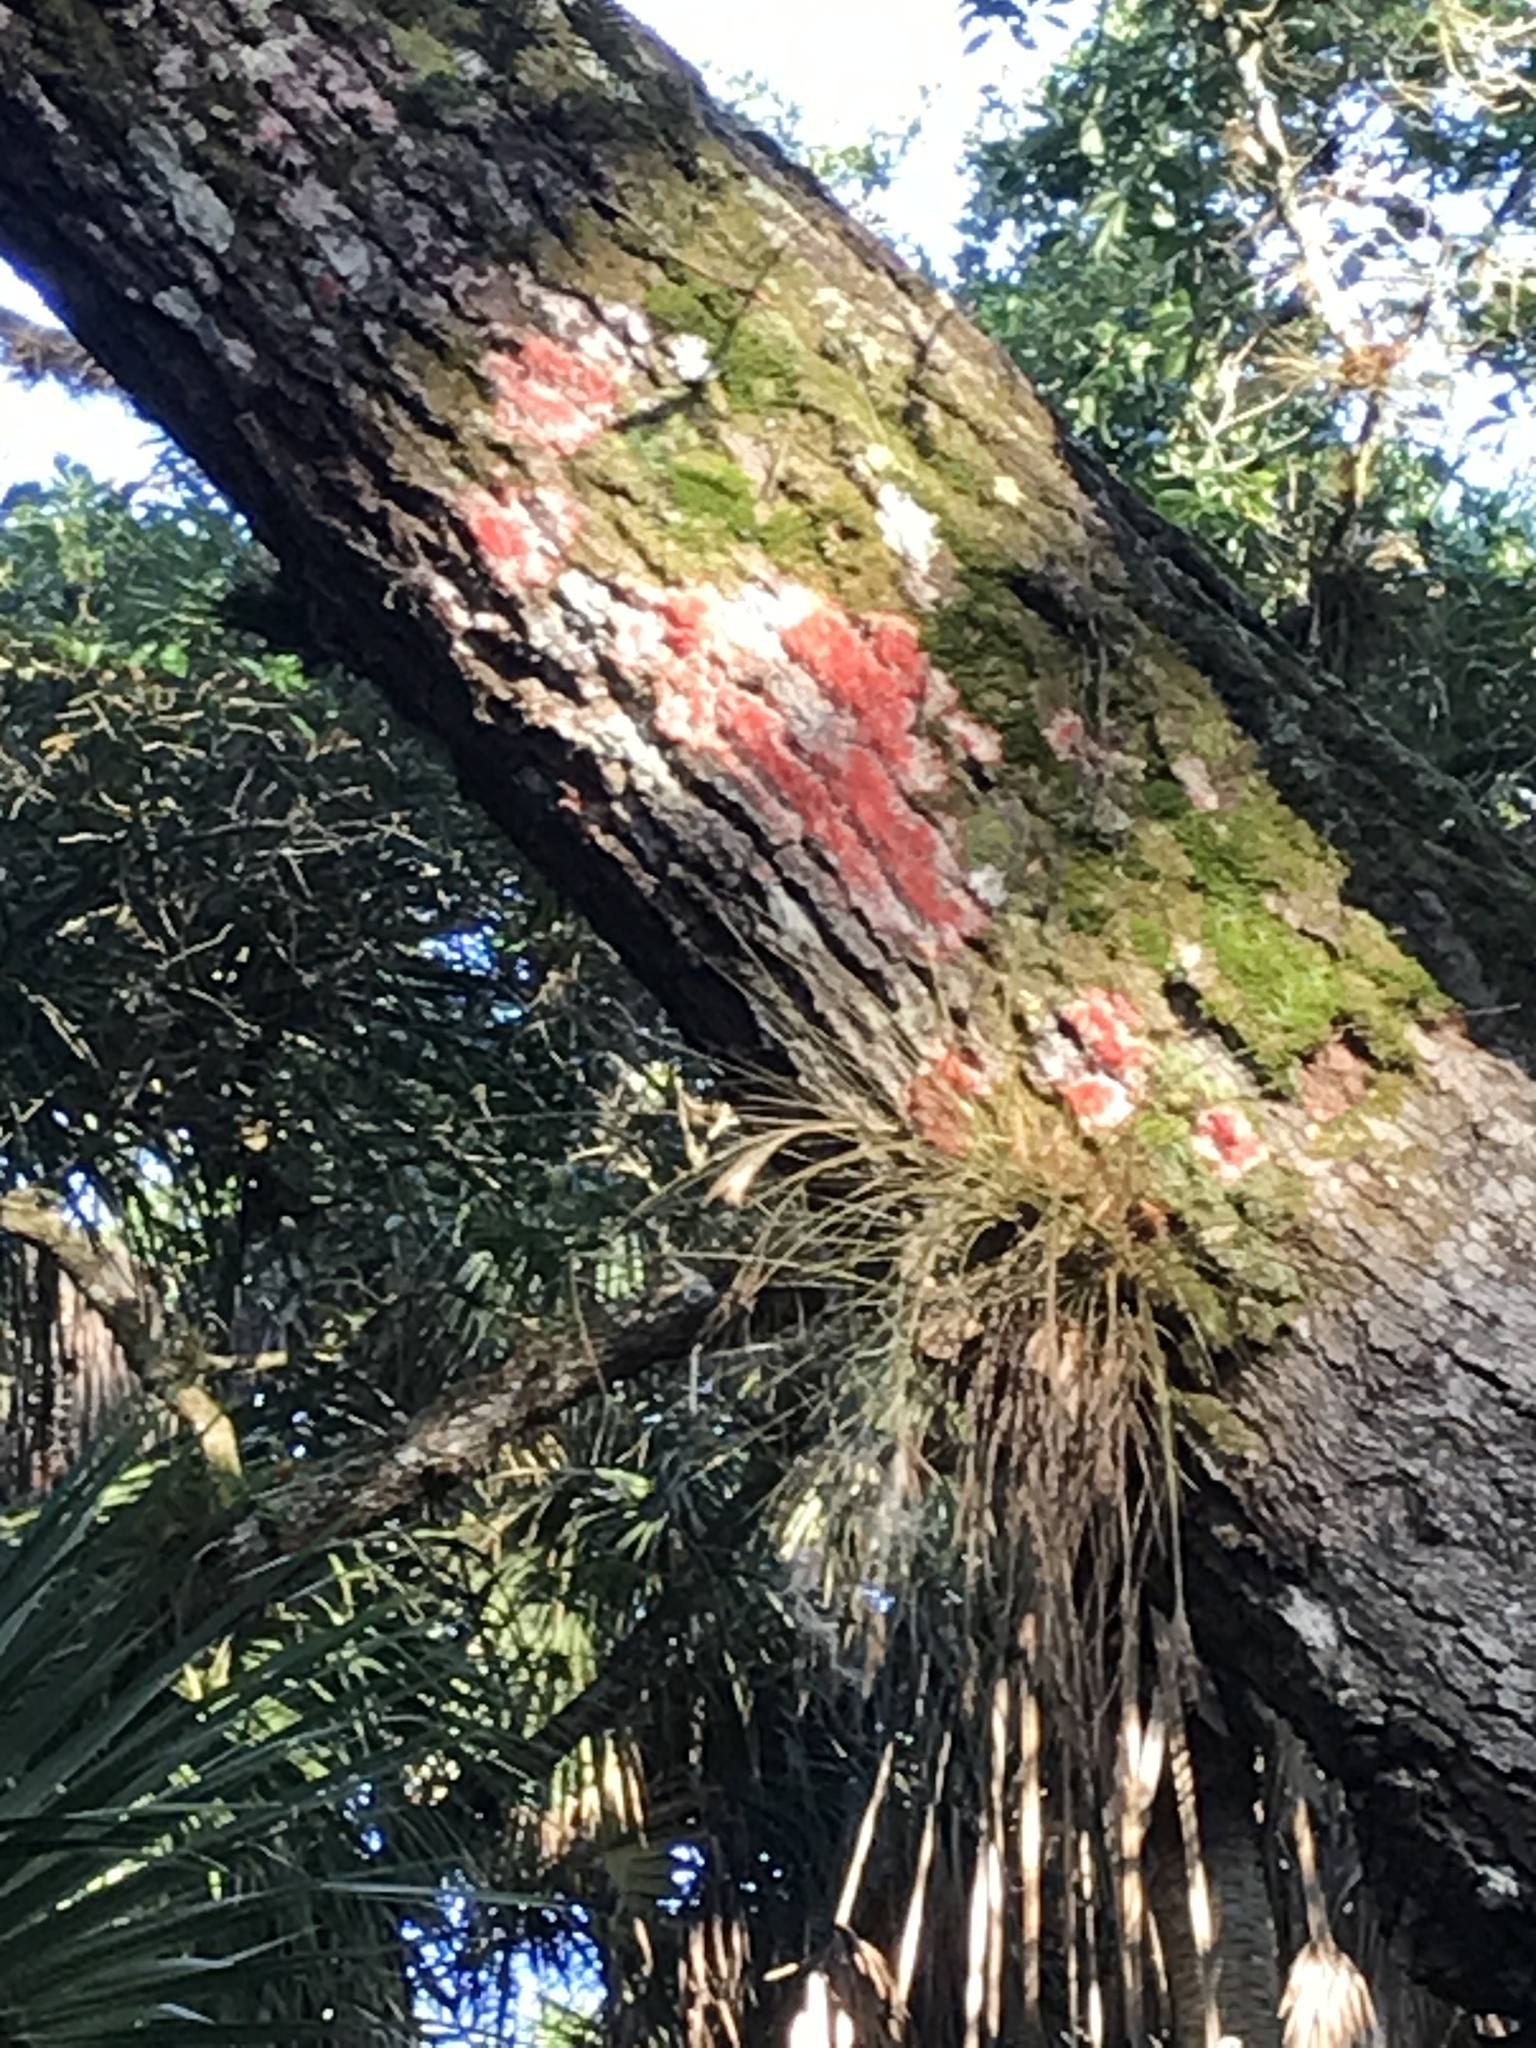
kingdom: Fungi
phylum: Ascomycota
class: Arthoniomycetes
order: Arthoniales
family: Arthoniaceae
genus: Herpothallon
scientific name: Herpothallon rubrocinctum
